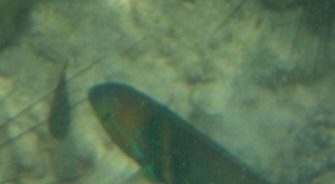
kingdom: Animalia
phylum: Chordata
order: Perciformes
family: Labridae
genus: Thalassoma
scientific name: Thalassoma hebraicum
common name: Goldbar wrasse
